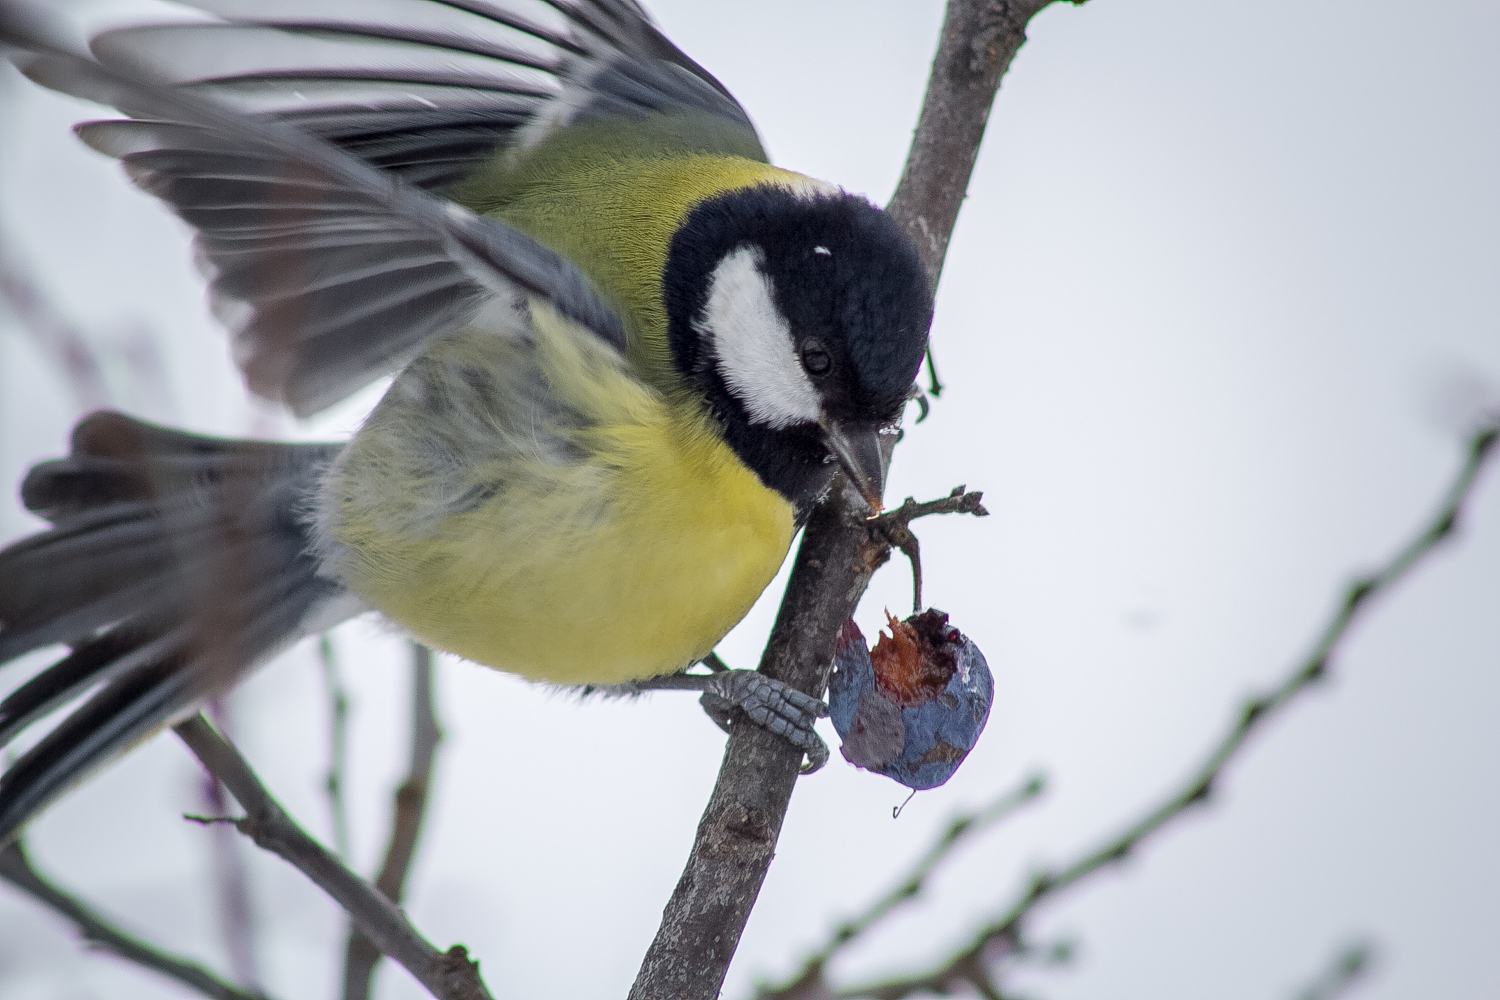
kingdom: Animalia
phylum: Chordata
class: Aves
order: Passeriformes
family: Paridae
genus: Parus
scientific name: Parus major
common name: Great tit
